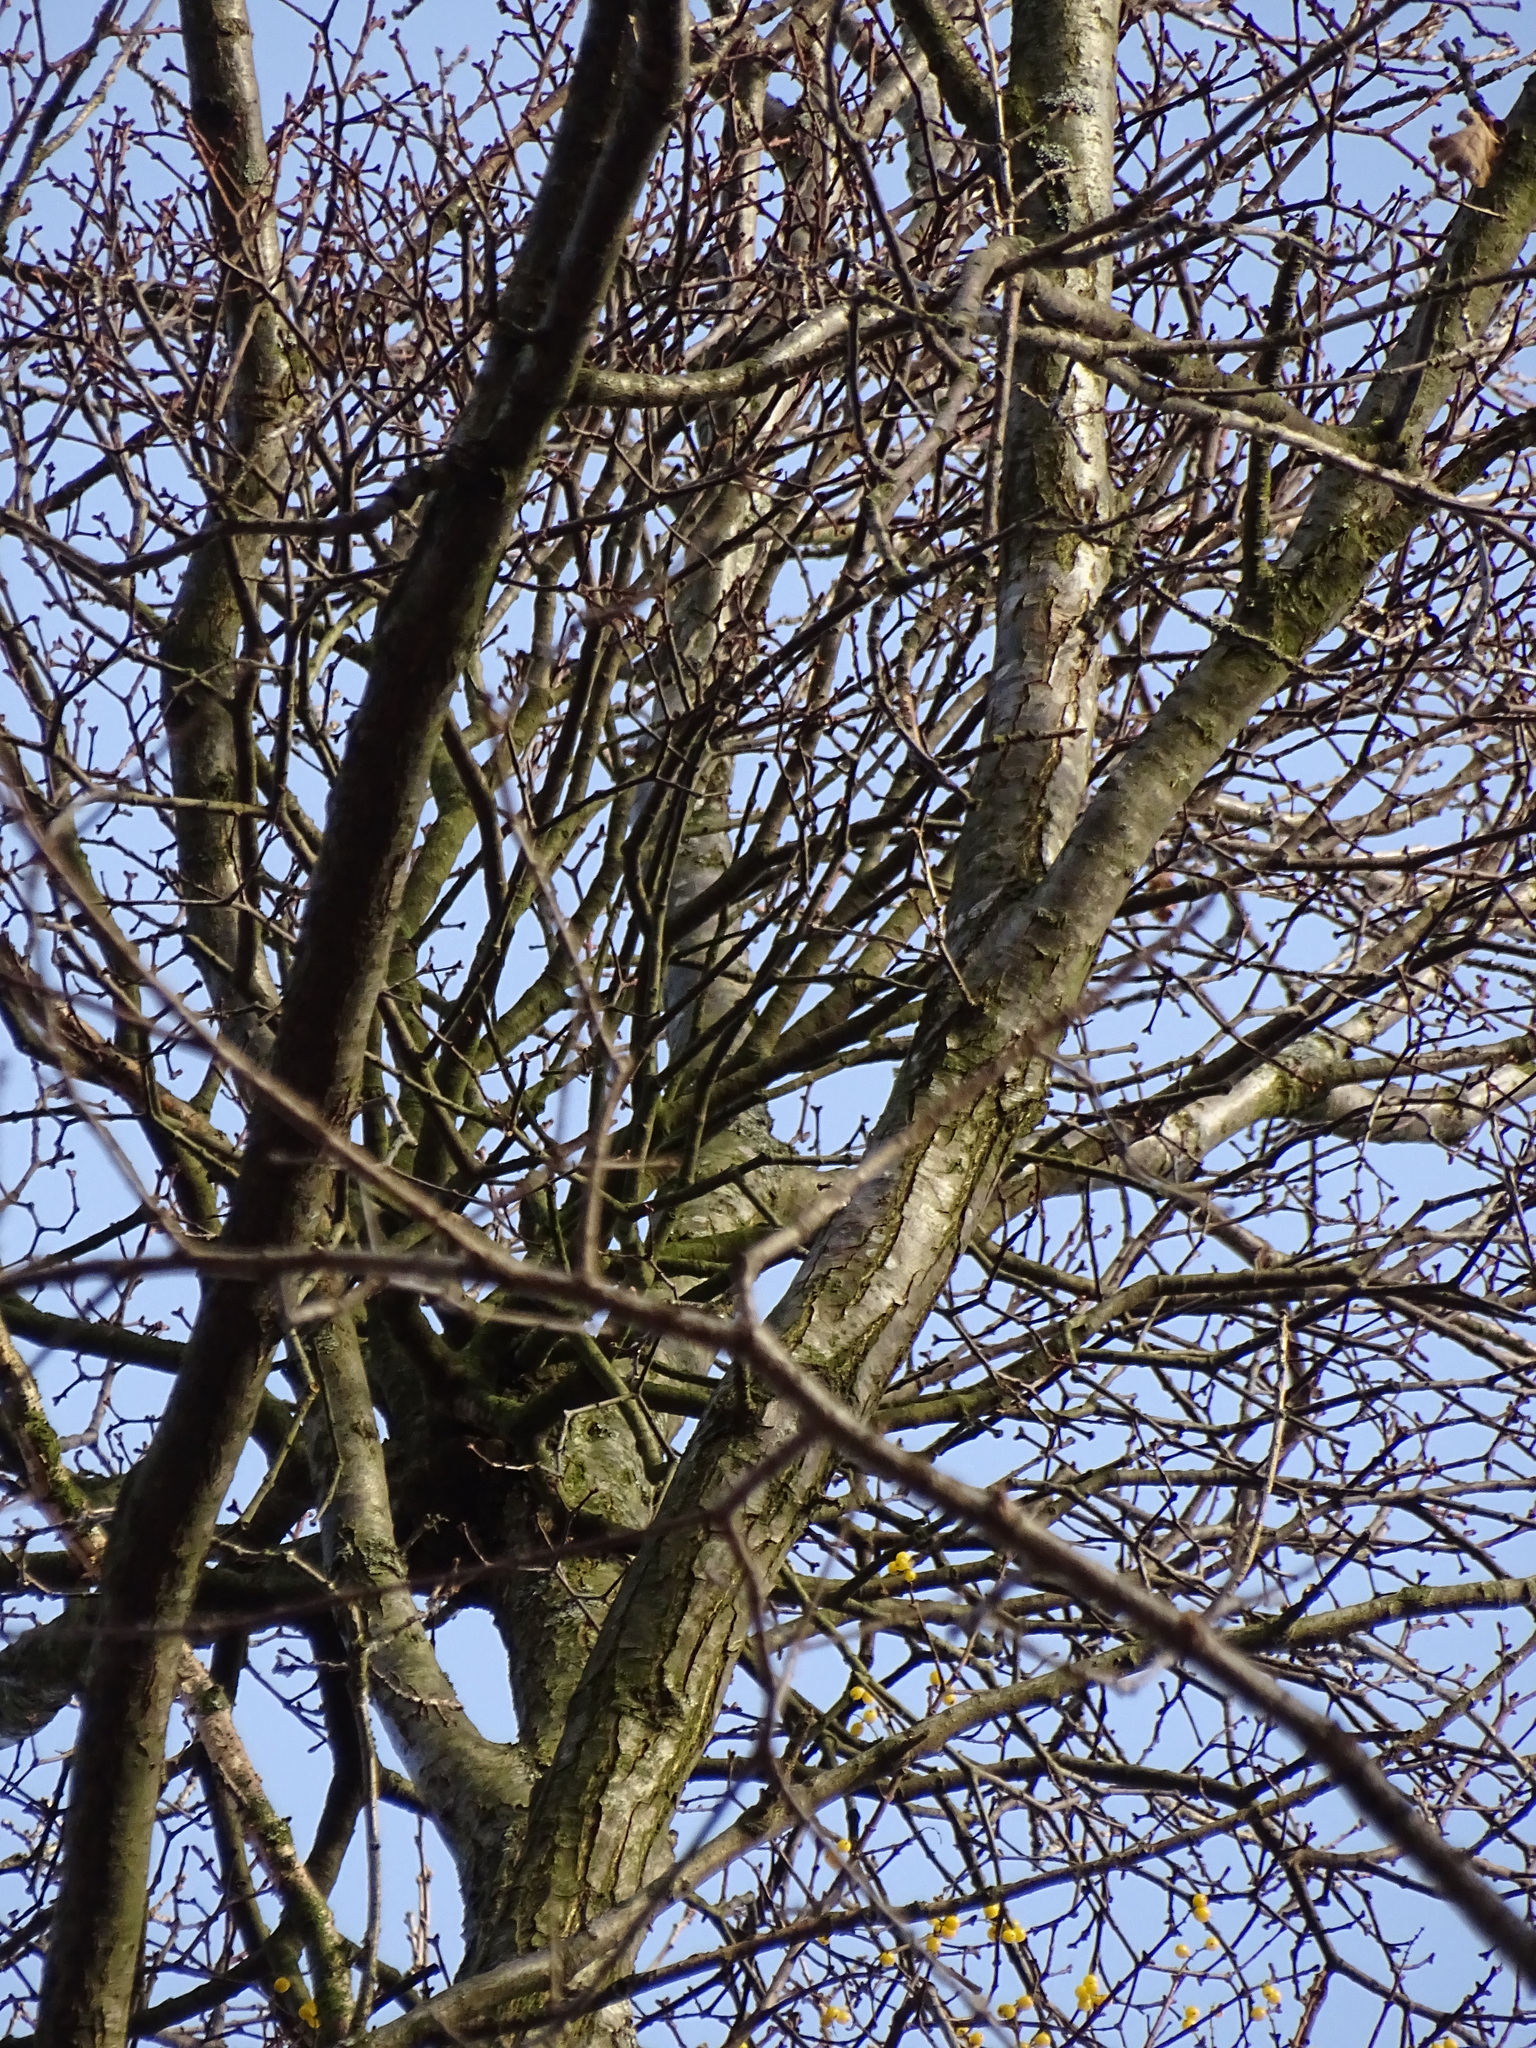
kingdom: Plantae
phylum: Tracheophyta
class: Magnoliopsida
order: Santalales
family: Loranthaceae
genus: Loranthus
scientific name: Loranthus europaeus
